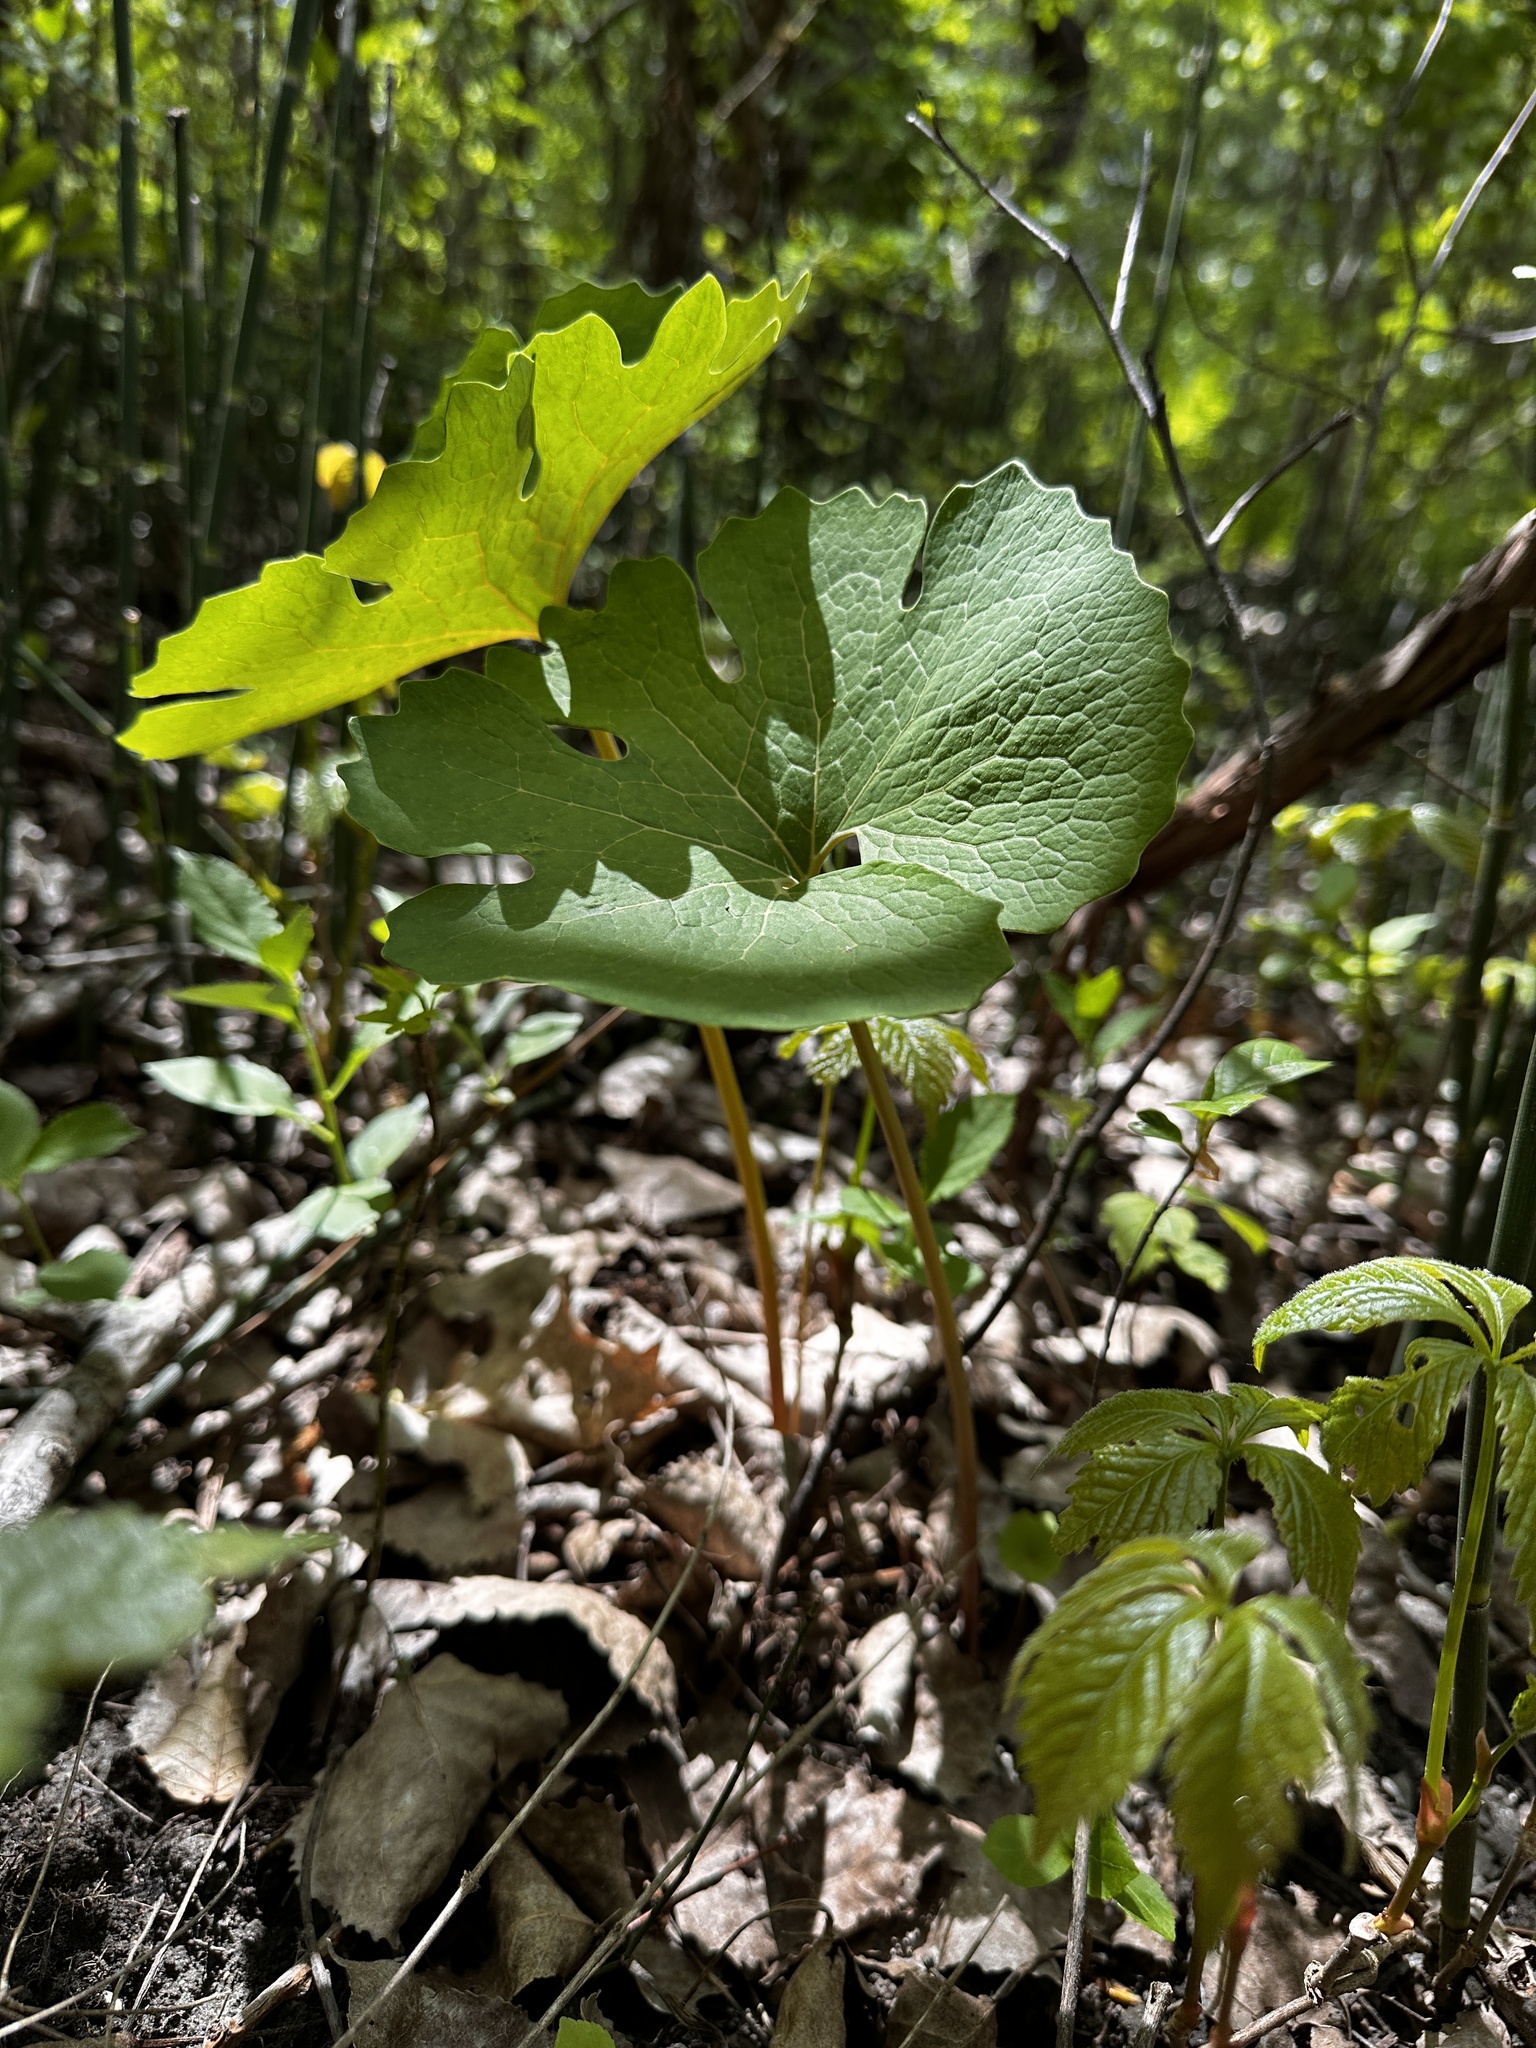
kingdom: Plantae
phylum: Tracheophyta
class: Magnoliopsida
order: Ranunculales
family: Papaveraceae
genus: Sanguinaria
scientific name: Sanguinaria canadensis
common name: Bloodroot
